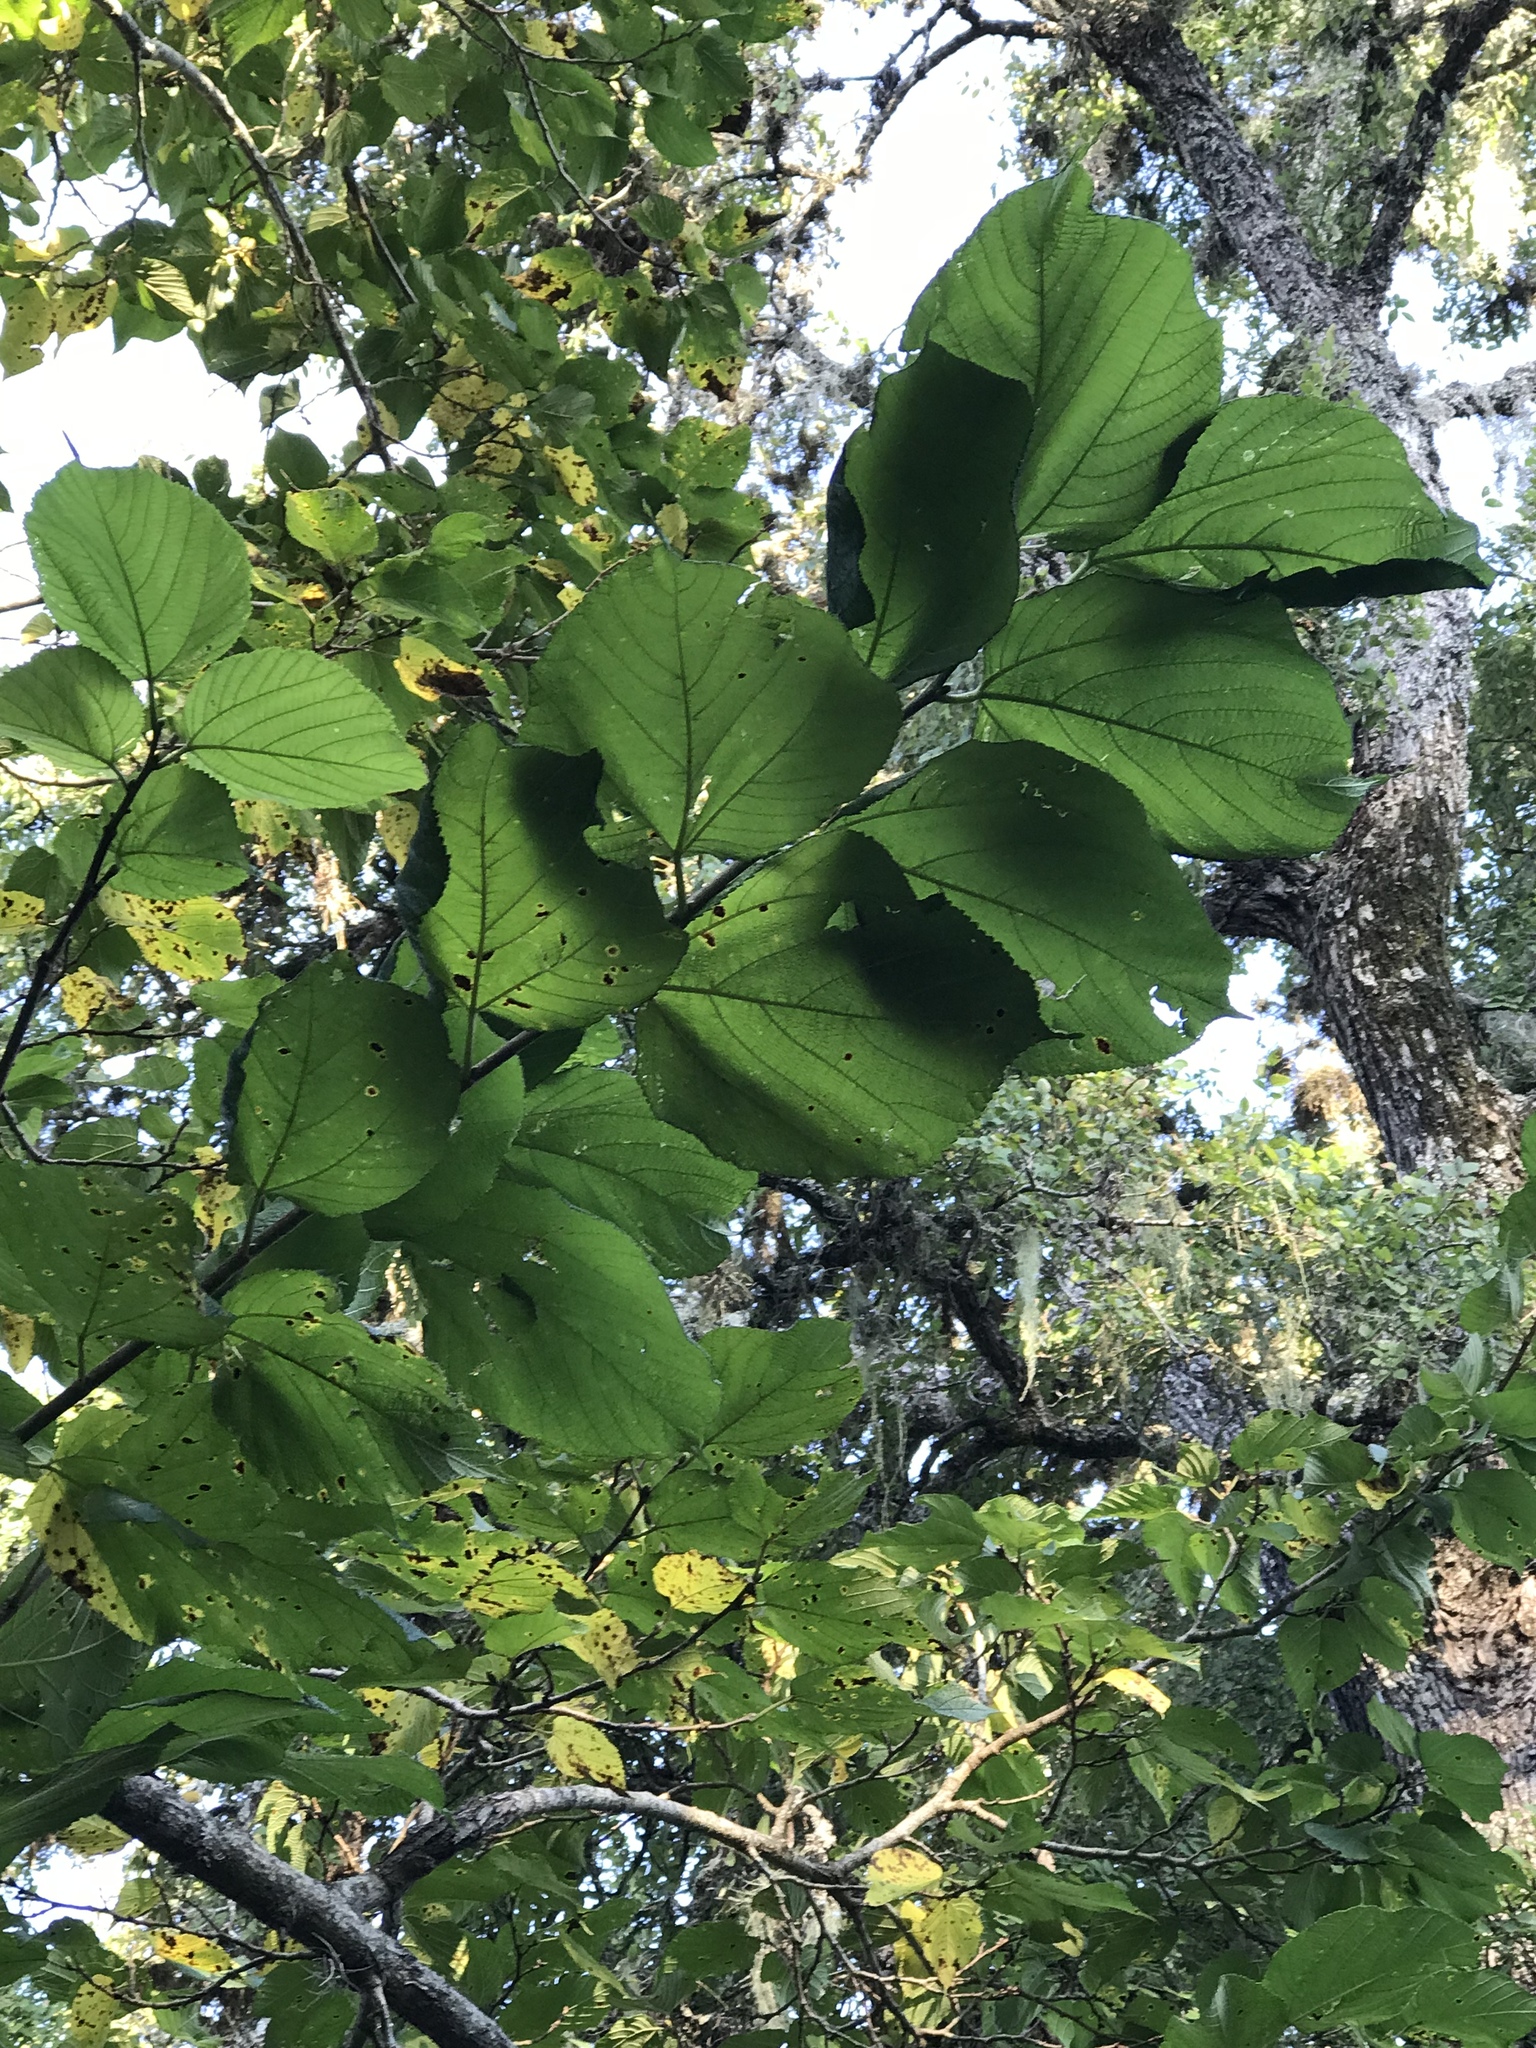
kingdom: Plantae
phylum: Tracheophyta
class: Magnoliopsida
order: Rosales
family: Moraceae
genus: Morus
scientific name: Morus rubra
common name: Red mulberry
